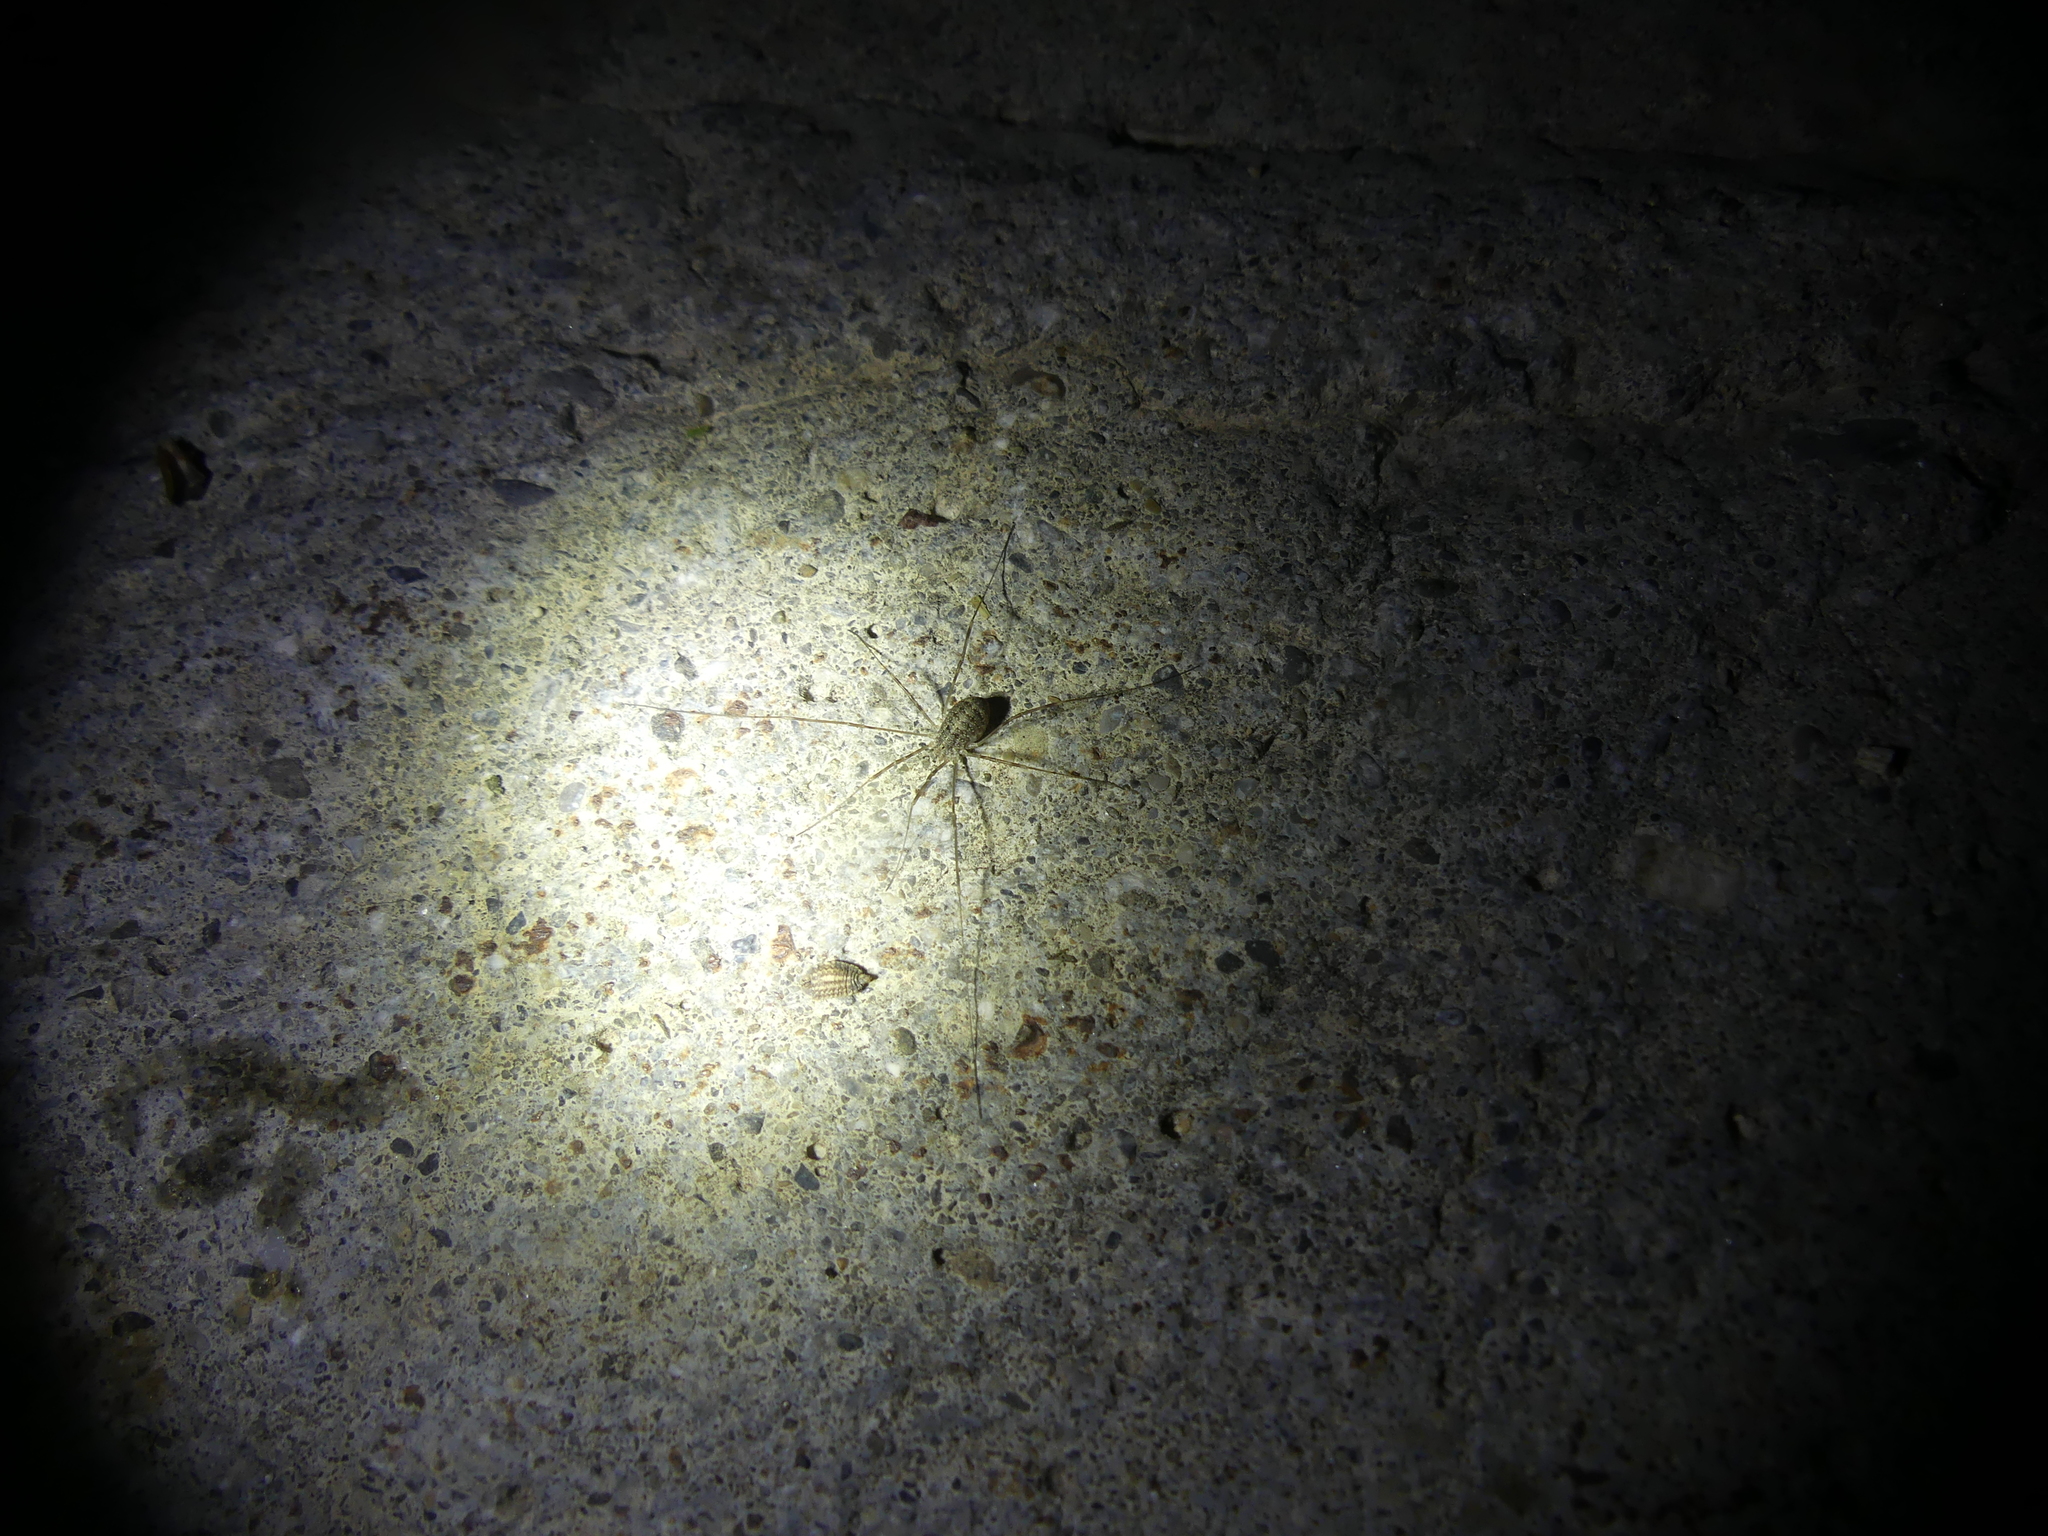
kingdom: Animalia
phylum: Arthropoda
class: Arachnida
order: Opiliones
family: Phalangiidae
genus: Opilio
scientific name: Opilio parietinus
